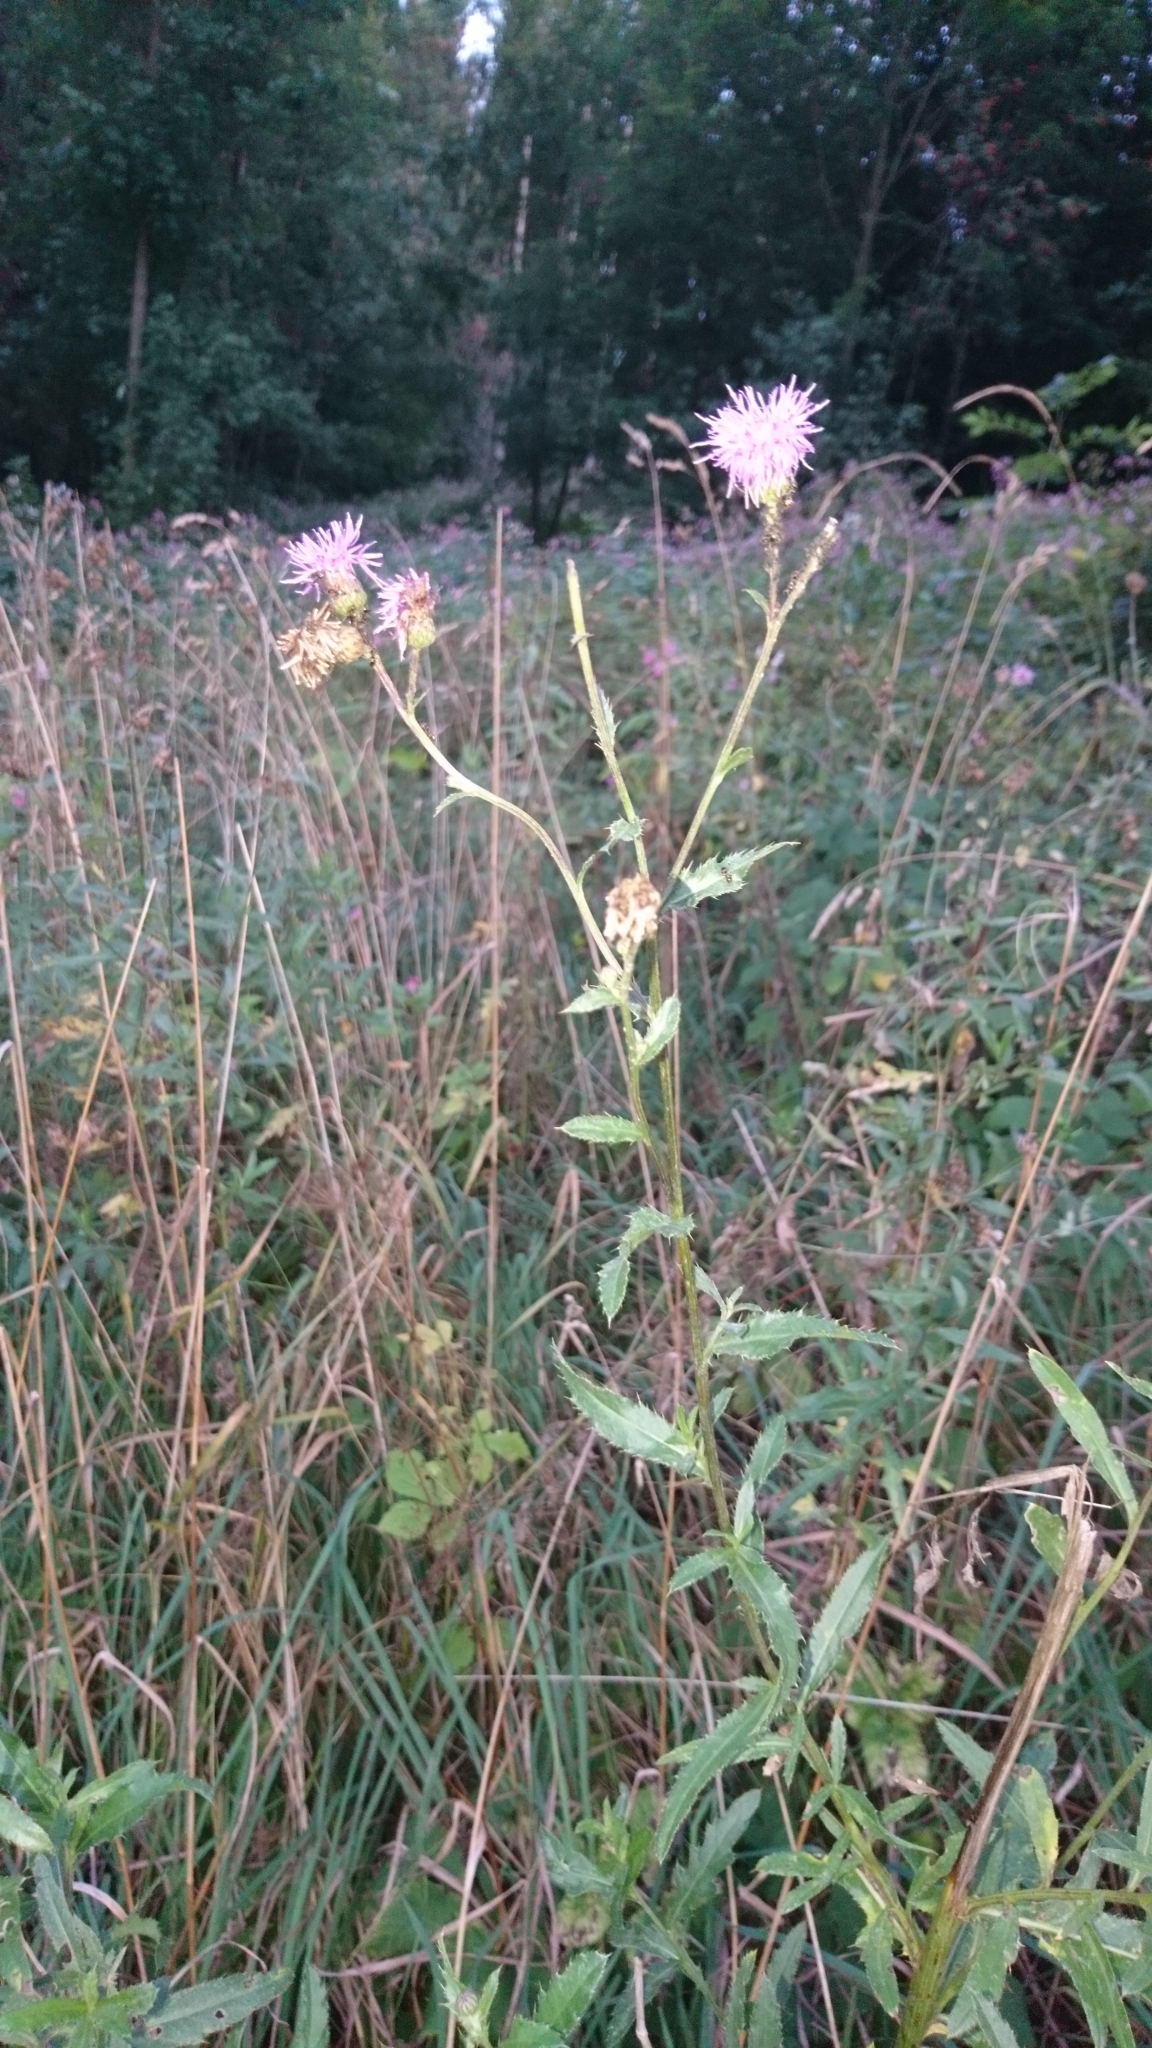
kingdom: Plantae
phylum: Tracheophyta
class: Magnoliopsida
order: Asterales
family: Asteraceae
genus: Cirsium
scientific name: Cirsium arvense
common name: Creeping thistle
